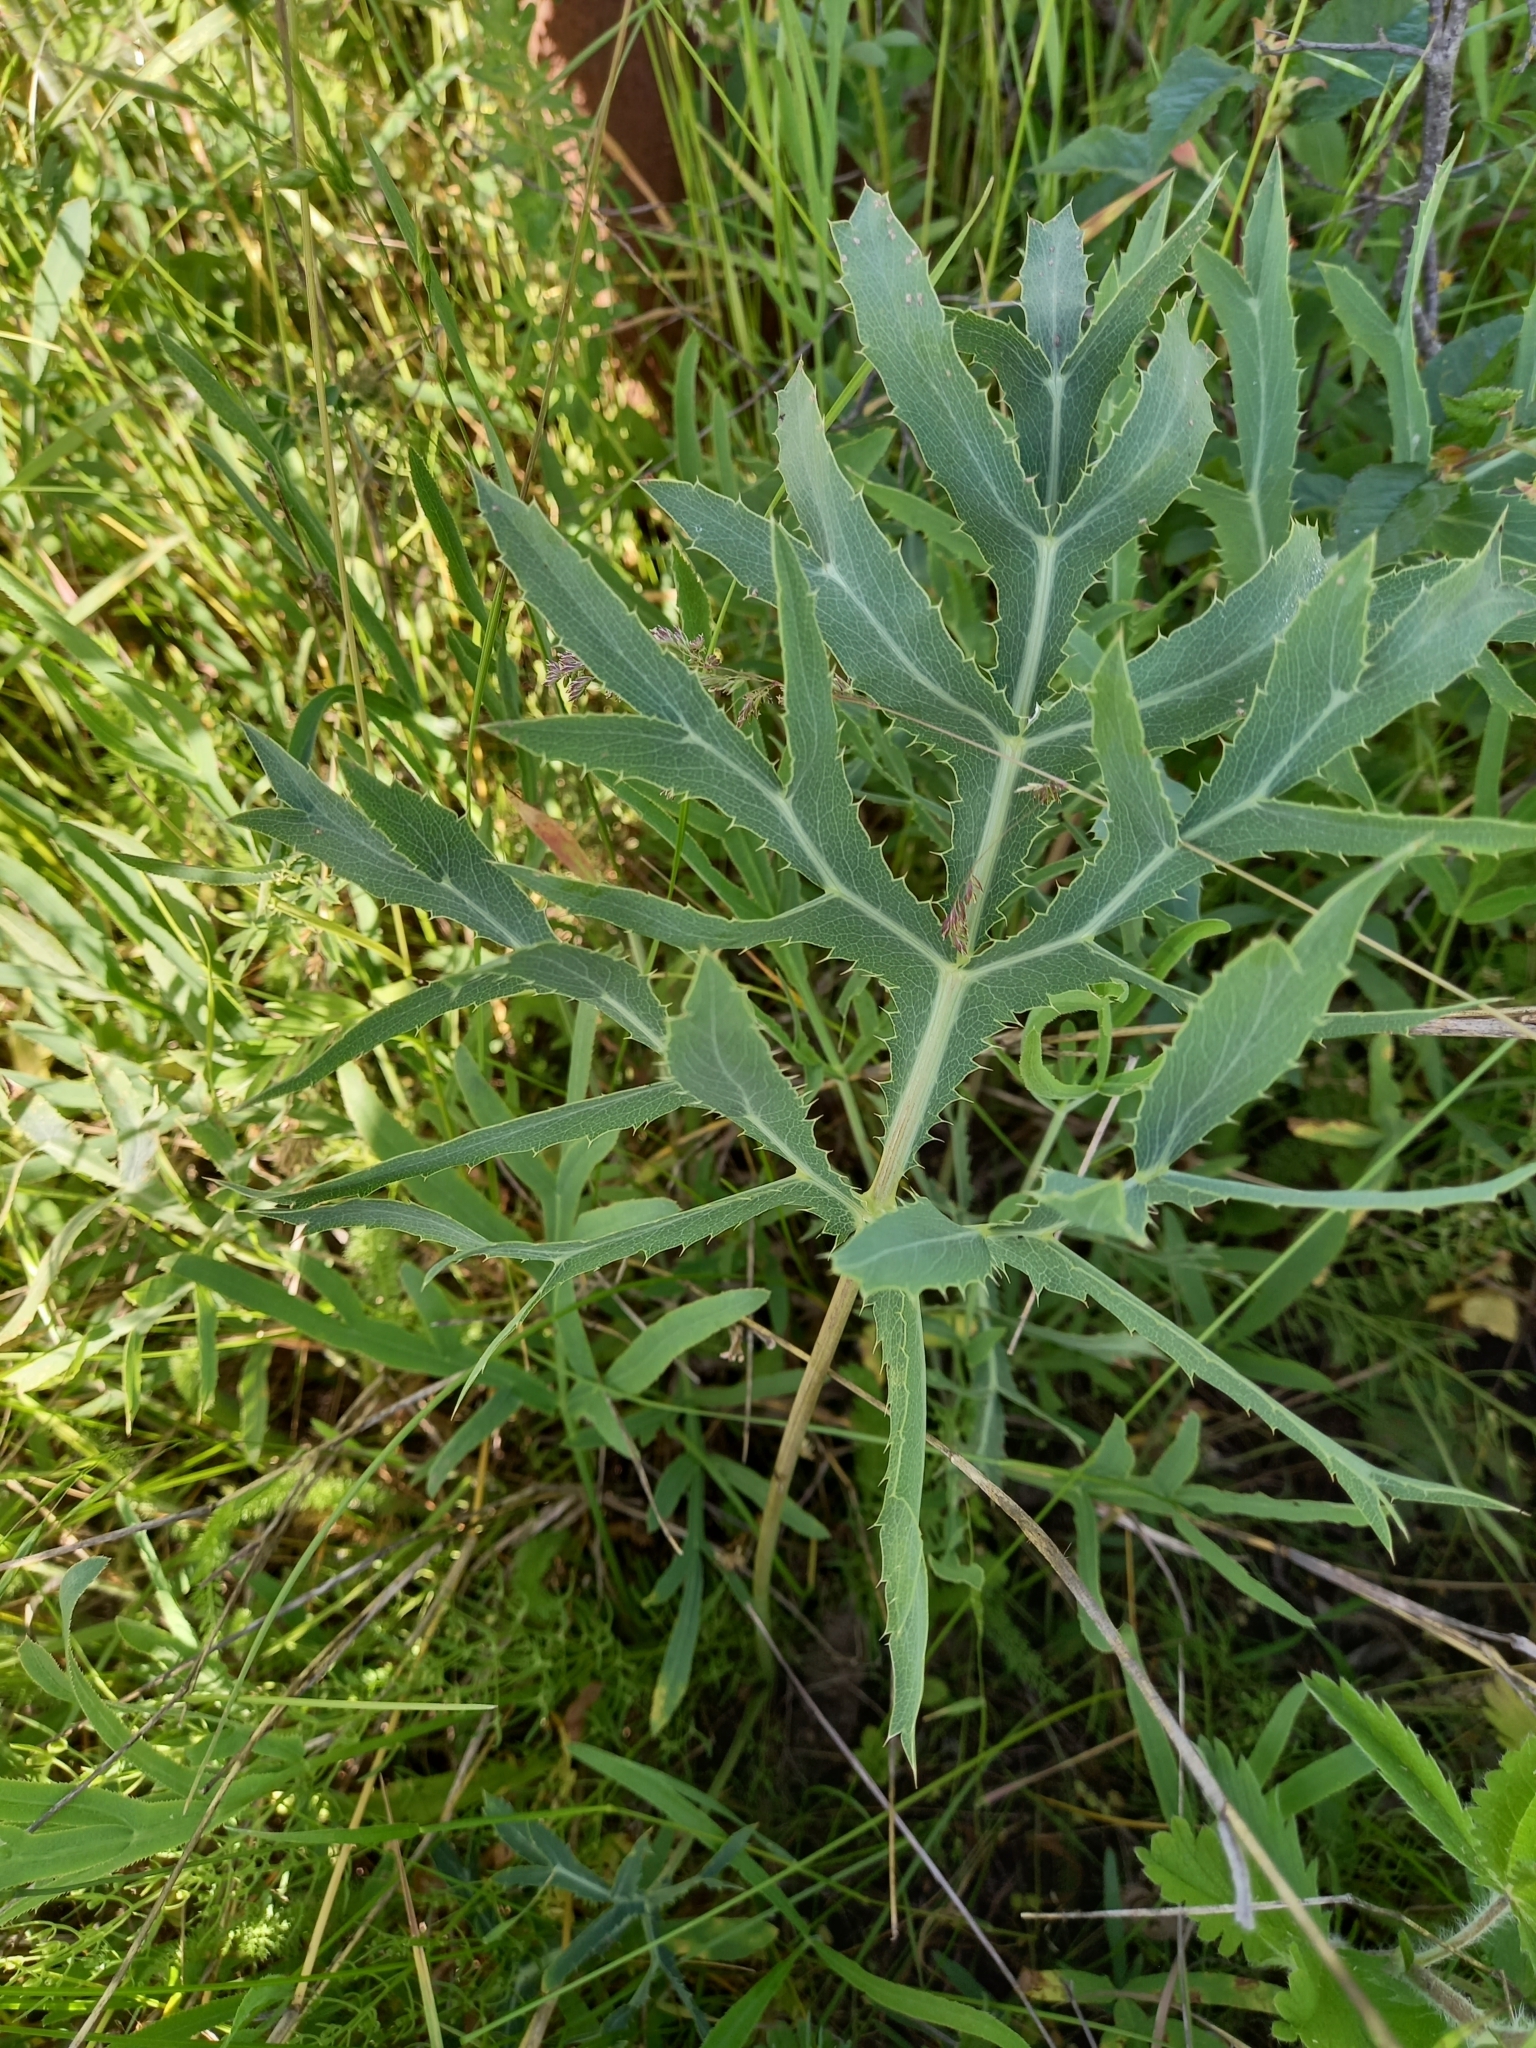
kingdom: Plantae
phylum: Tracheophyta
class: Magnoliopsida
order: Apiales
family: Apiaceae
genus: Eryngium
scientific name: Eryngium campestre
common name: Field eryngo
